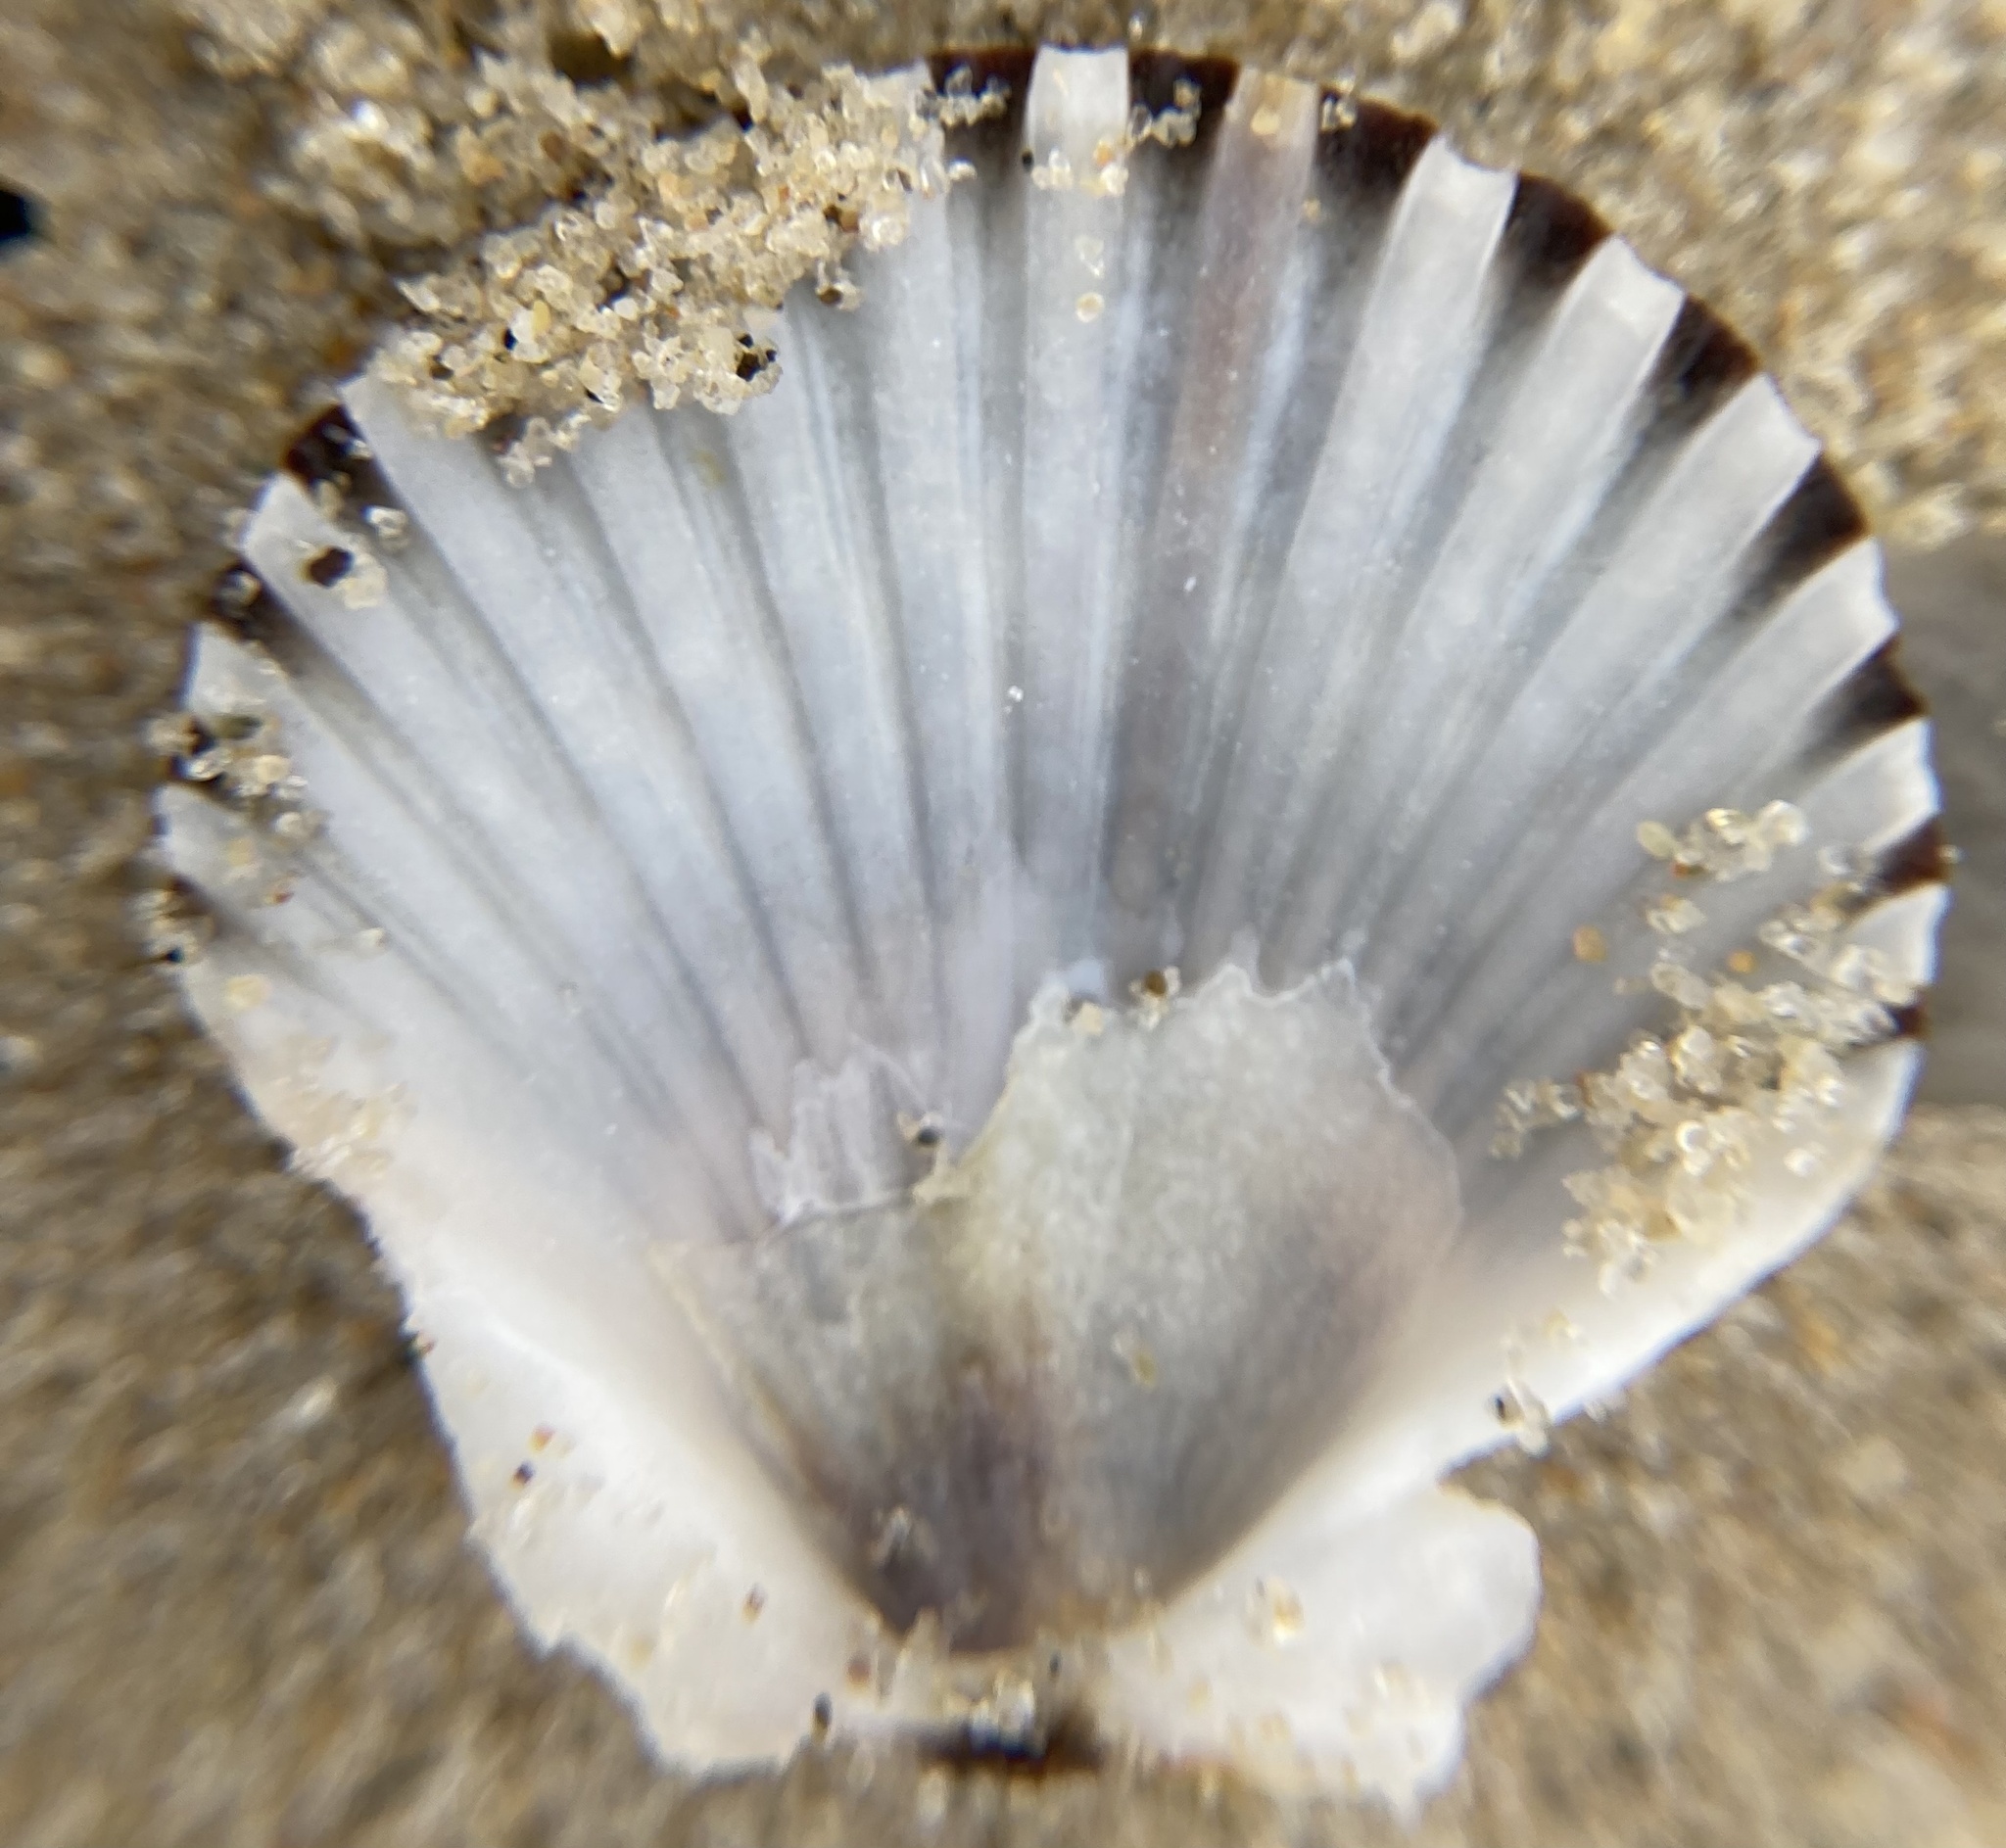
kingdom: Animalia
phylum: Mollusca
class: Bivalvia
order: Pectinida
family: Pectinidae
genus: Argopecten
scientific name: Argopecten irradians
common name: Atlantic bay scallop
